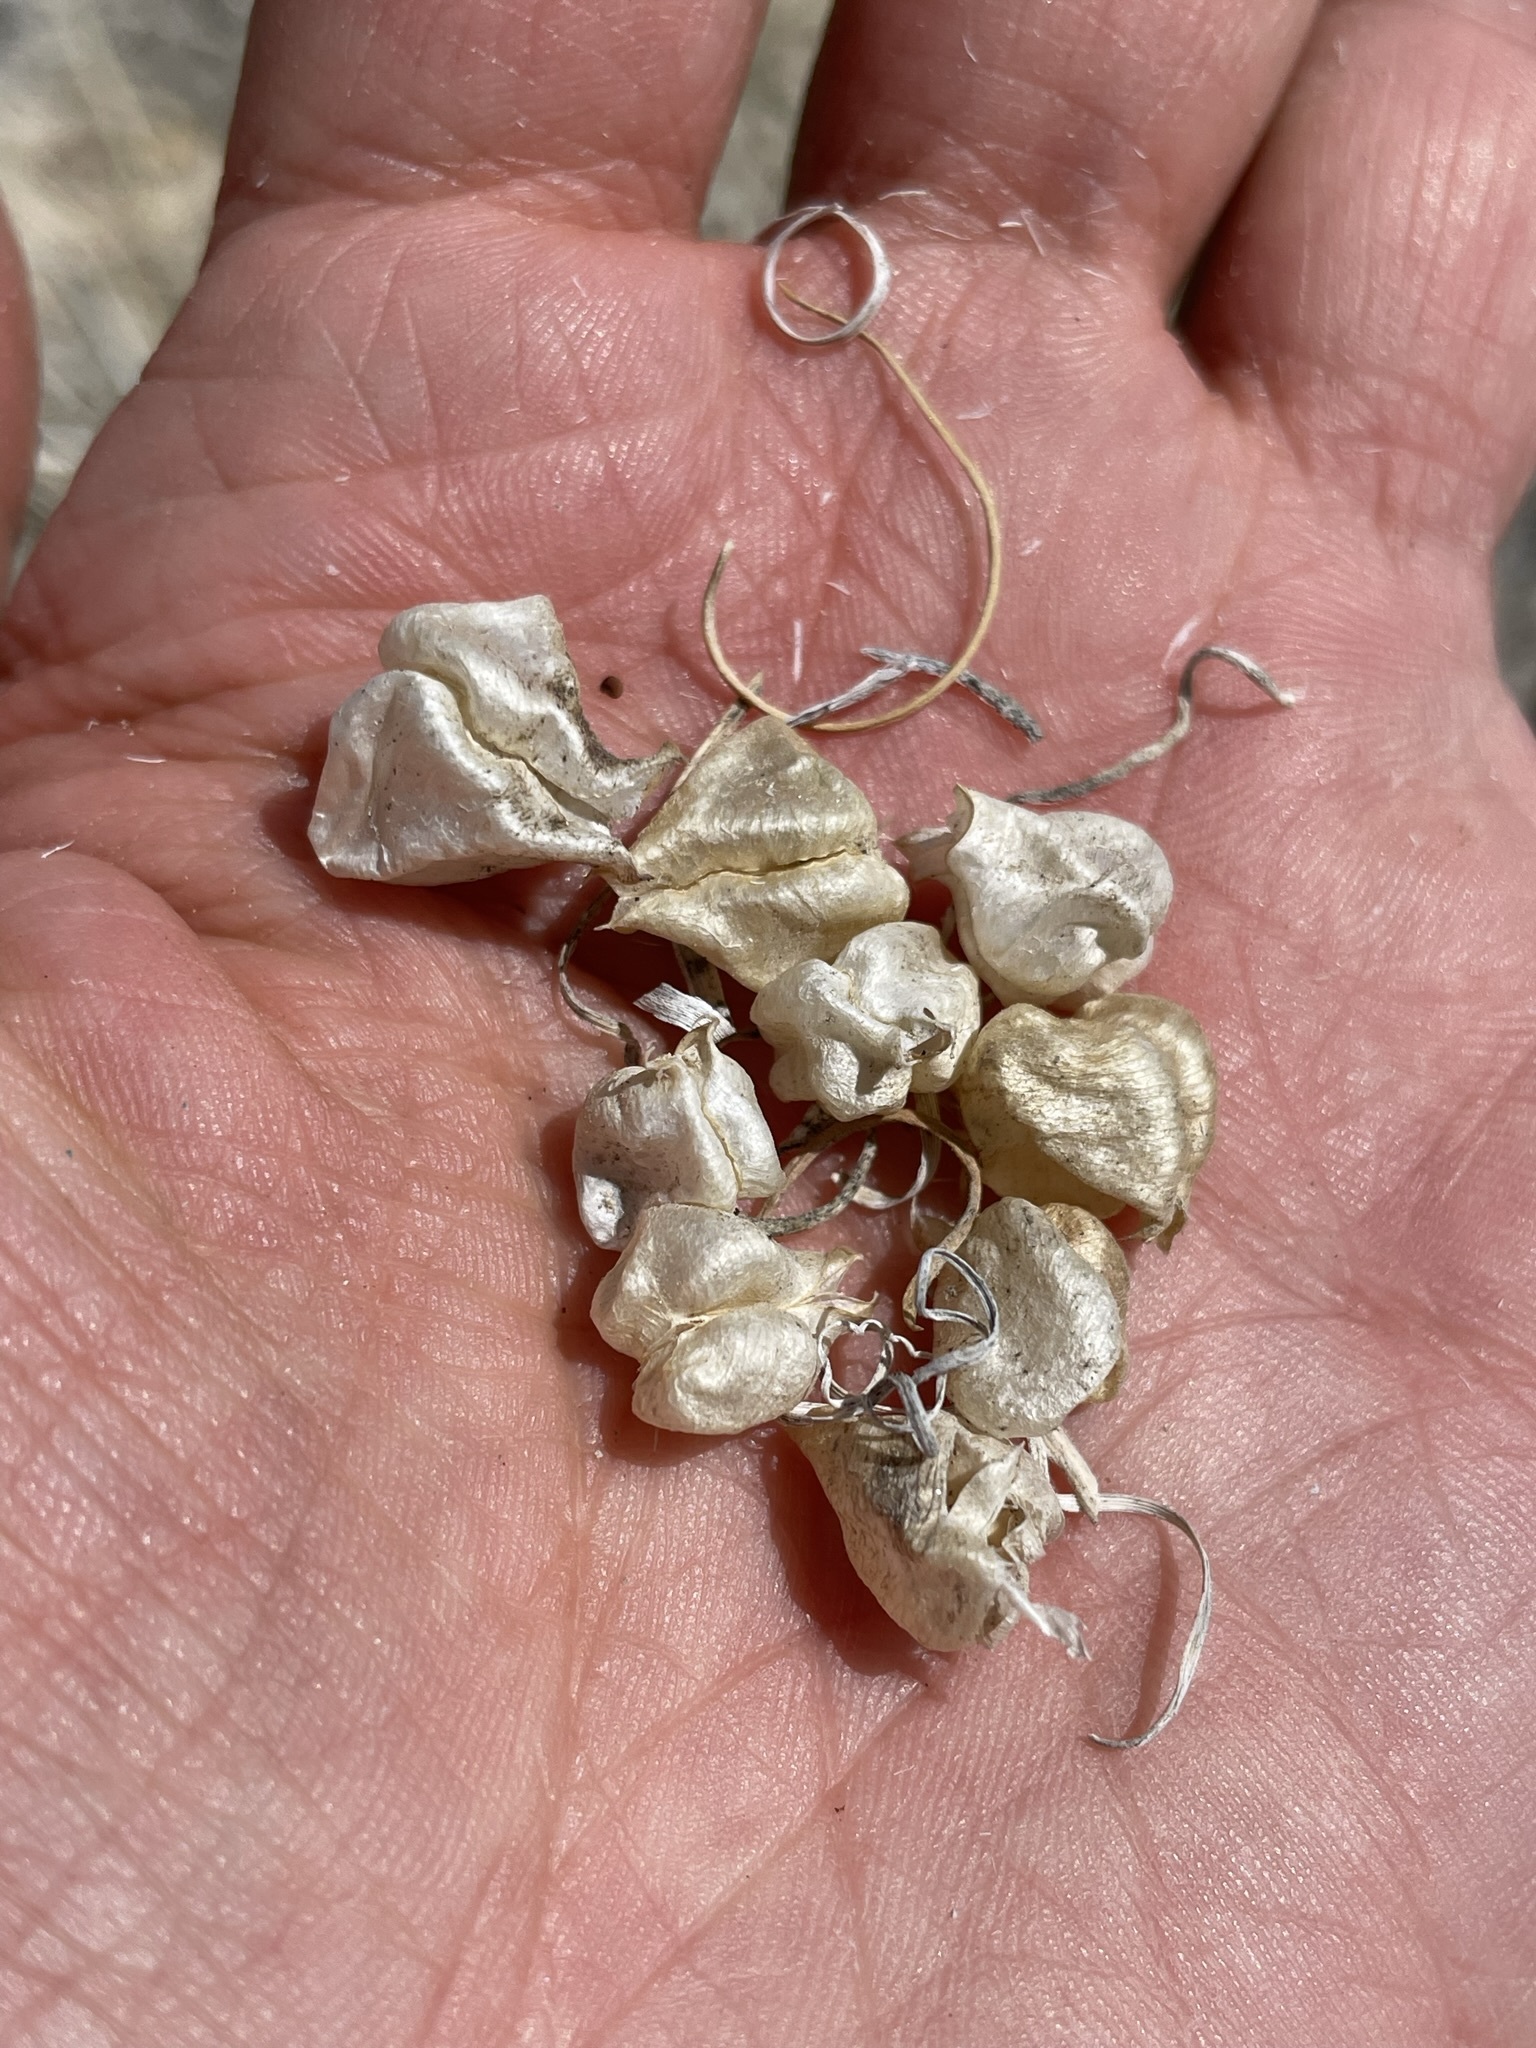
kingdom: Plantae
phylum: Tracheophyta
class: Magnoliopsida
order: Fabales
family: Fabaceae
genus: Astragalus
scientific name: Astragalus lentiginosus
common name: Freckled milkvetch
